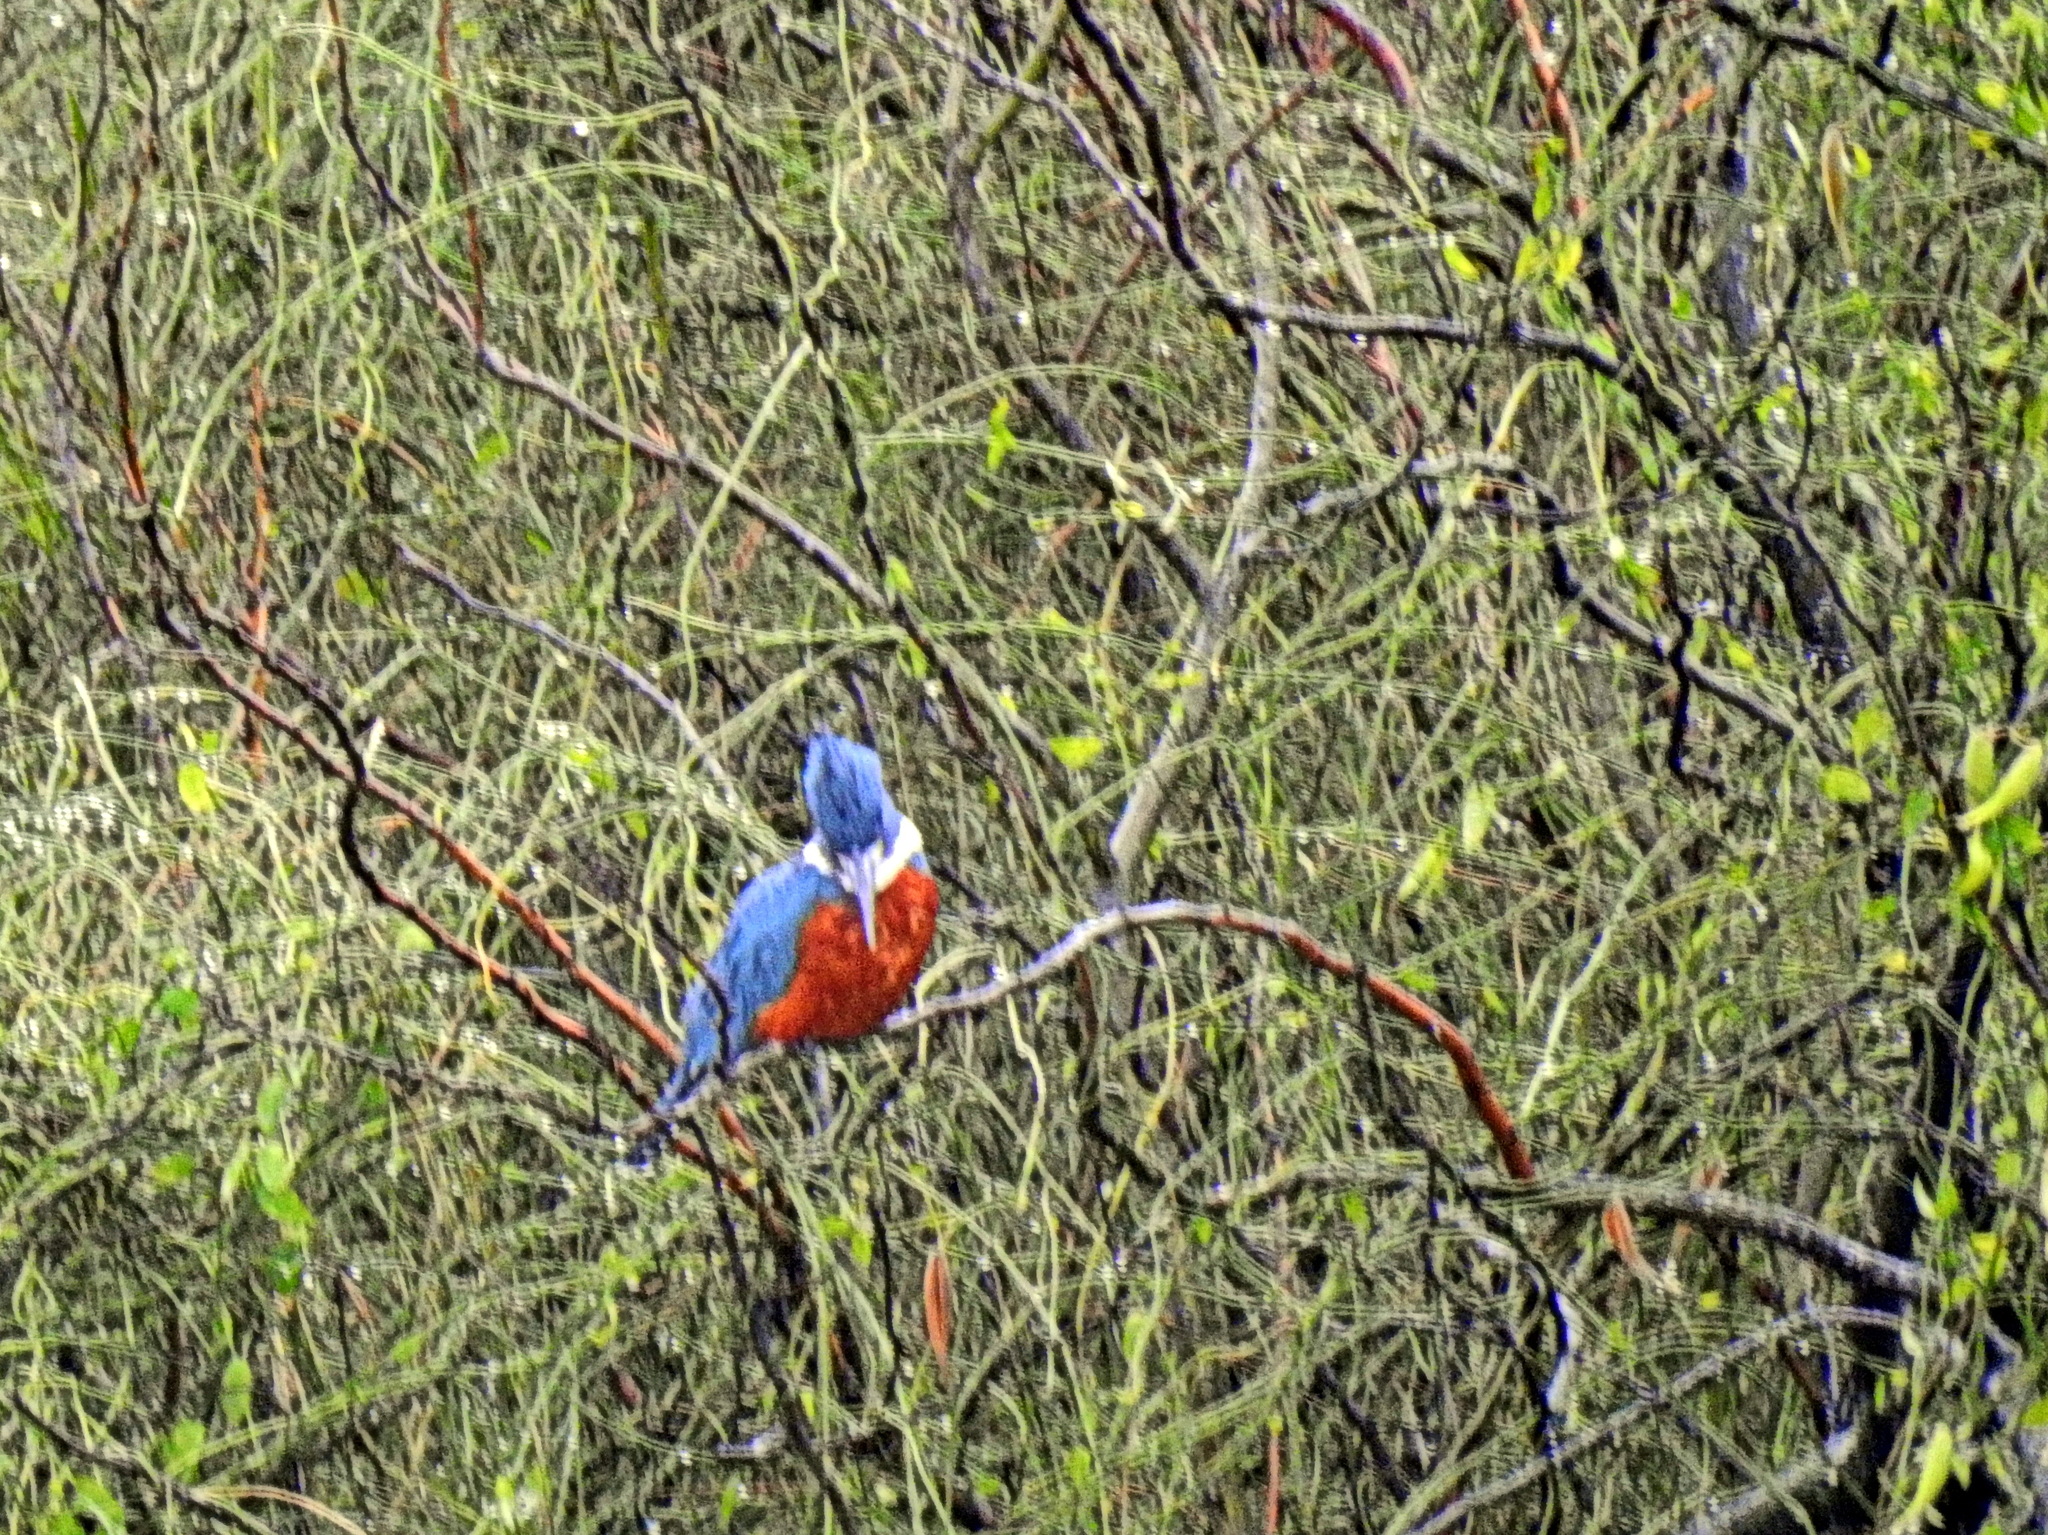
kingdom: Animalia
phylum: Chordata
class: Aves
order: Coraciiformes
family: Alcedinidae
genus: Megaceryle
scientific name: Megaceryle torquata
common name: Ringed kingfisher
